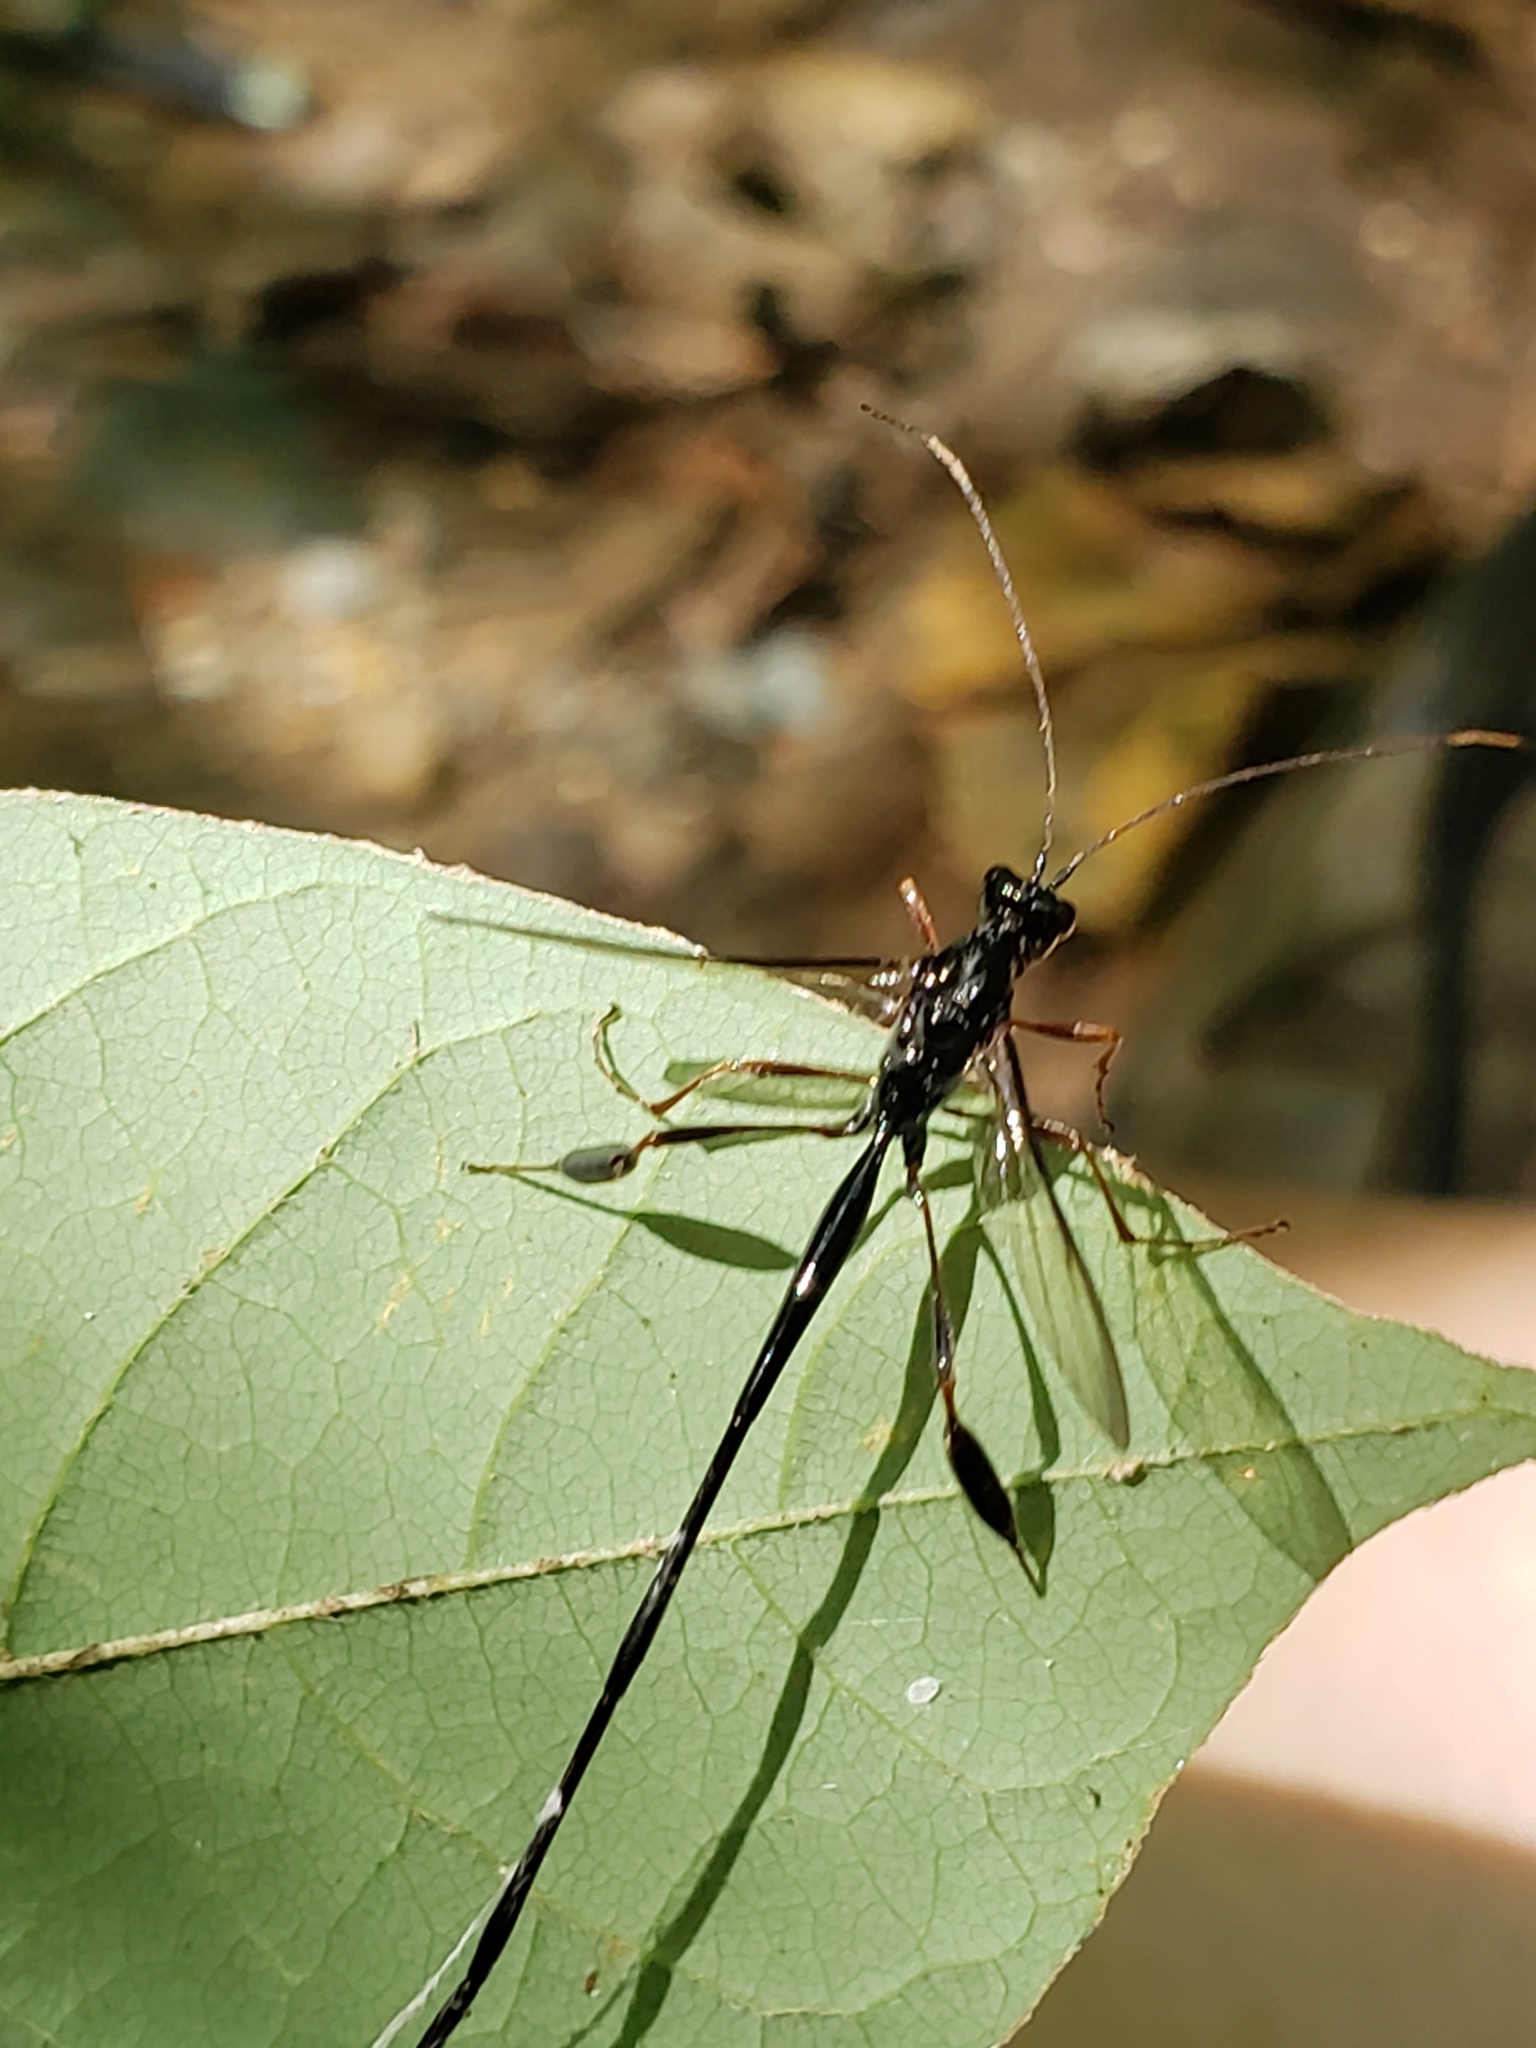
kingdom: Animalia
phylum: Arthropoda
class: Insecta
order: Hymenoptera
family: Pelecinidae
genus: Pelecinus
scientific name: Pelecinus polyturator
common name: American pelecinid wasp
